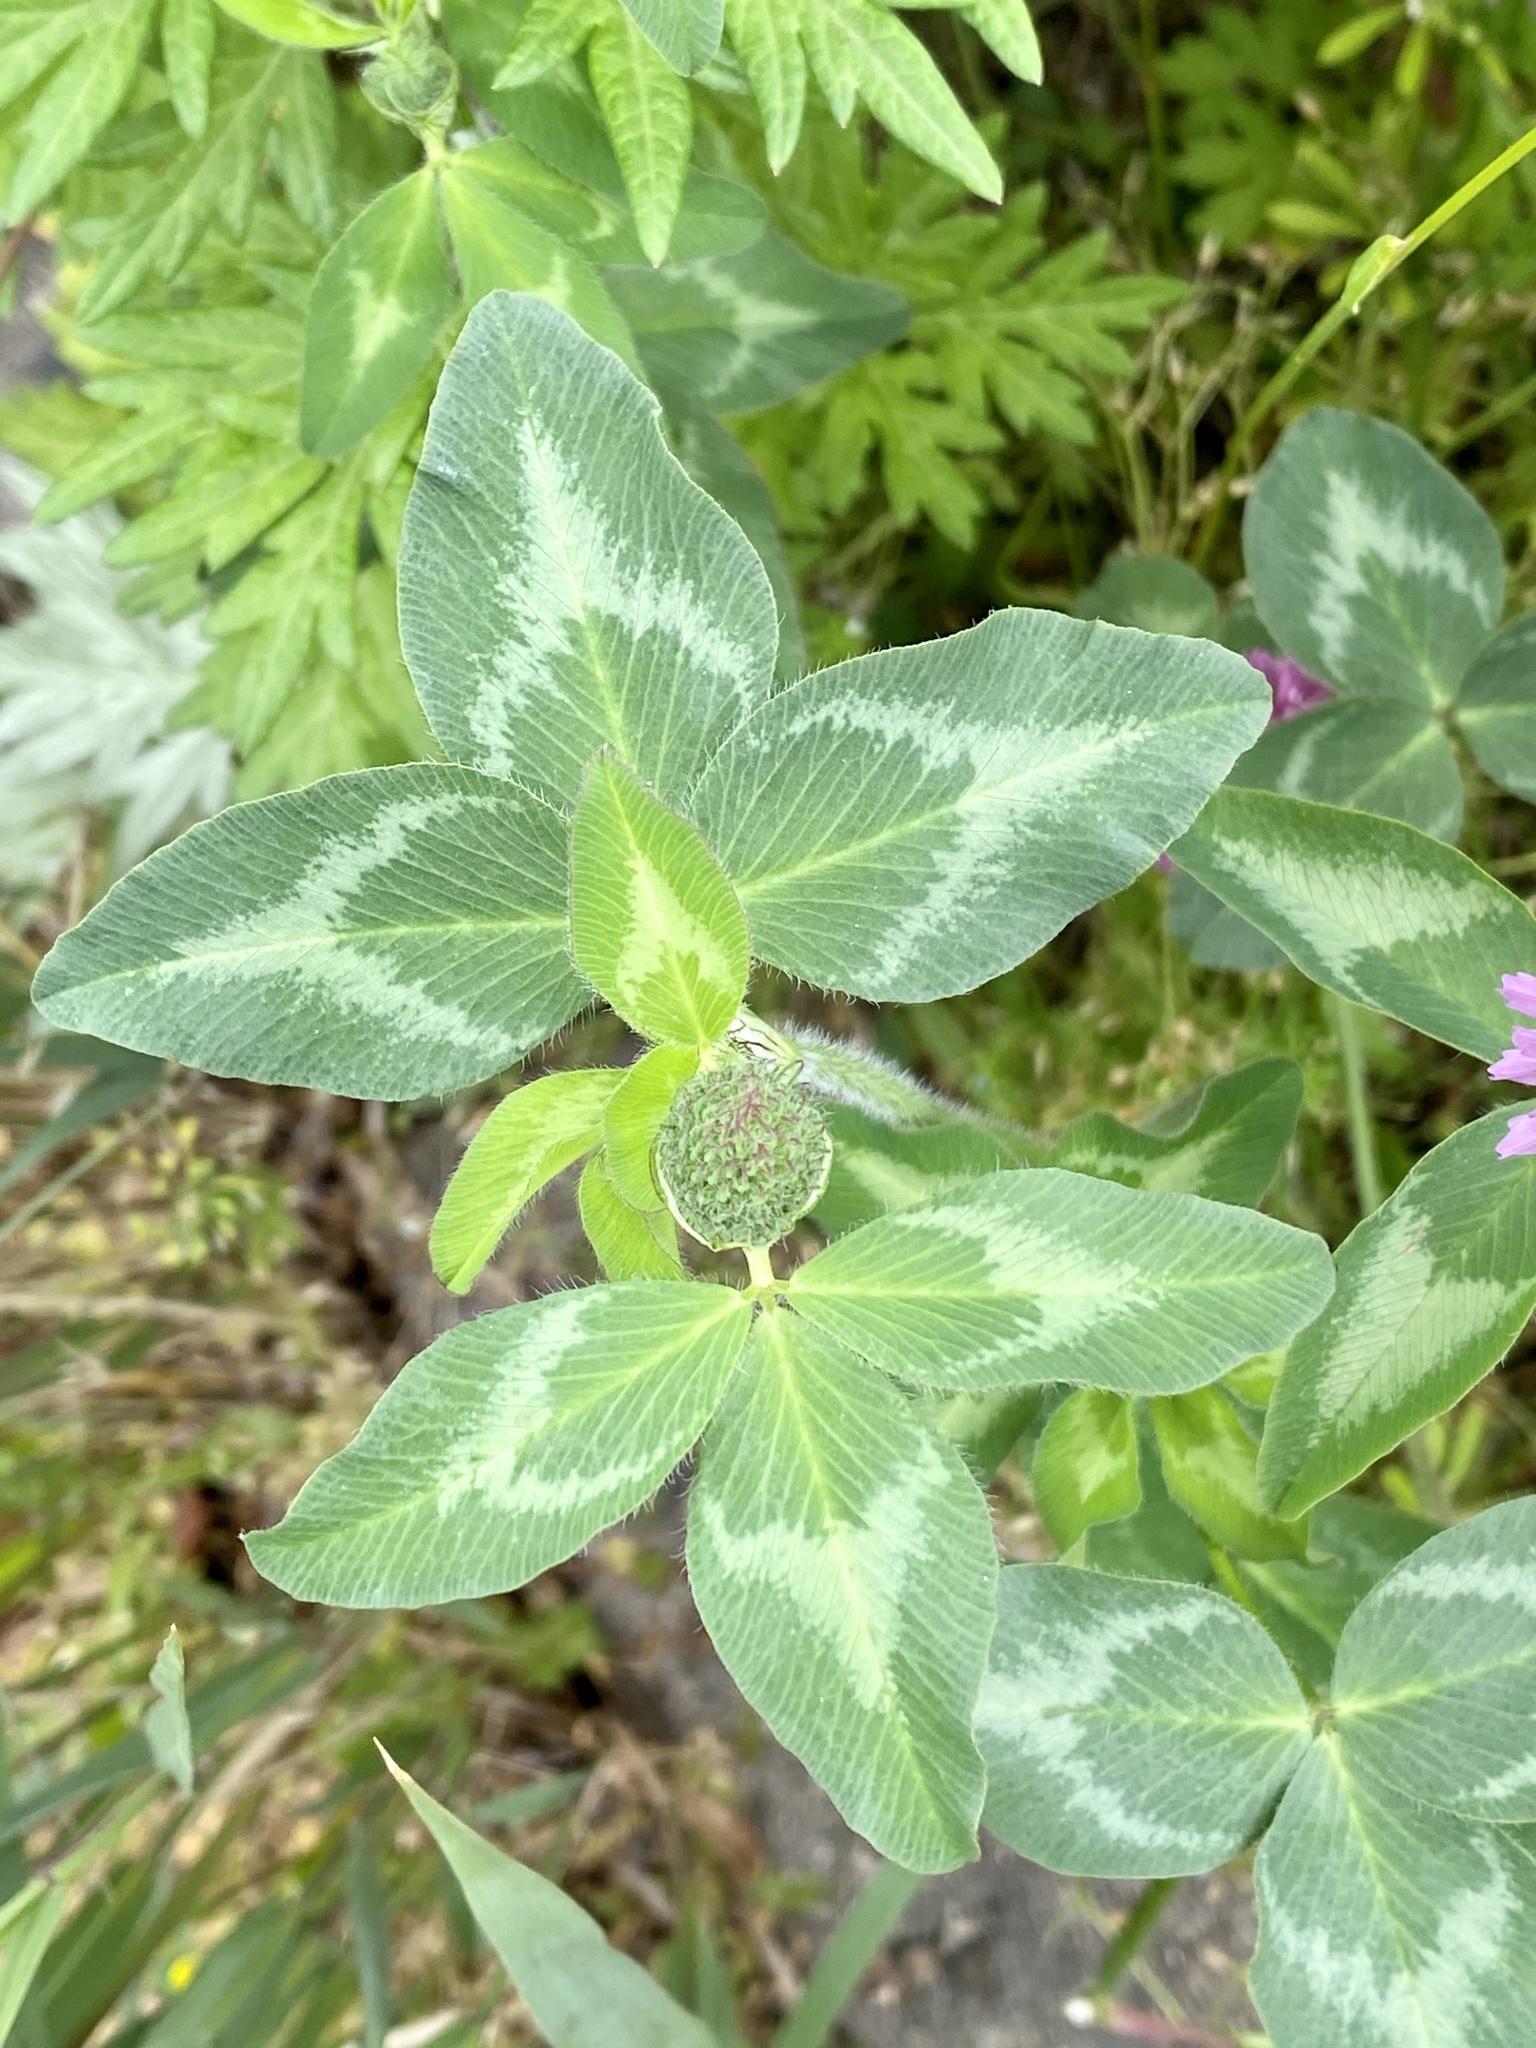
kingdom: Plantae
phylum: Tracheophyta
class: Magnoliopsida
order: Fabales
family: Fabaceae
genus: Trifolium
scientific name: Trifolium pratense
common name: Red clover
